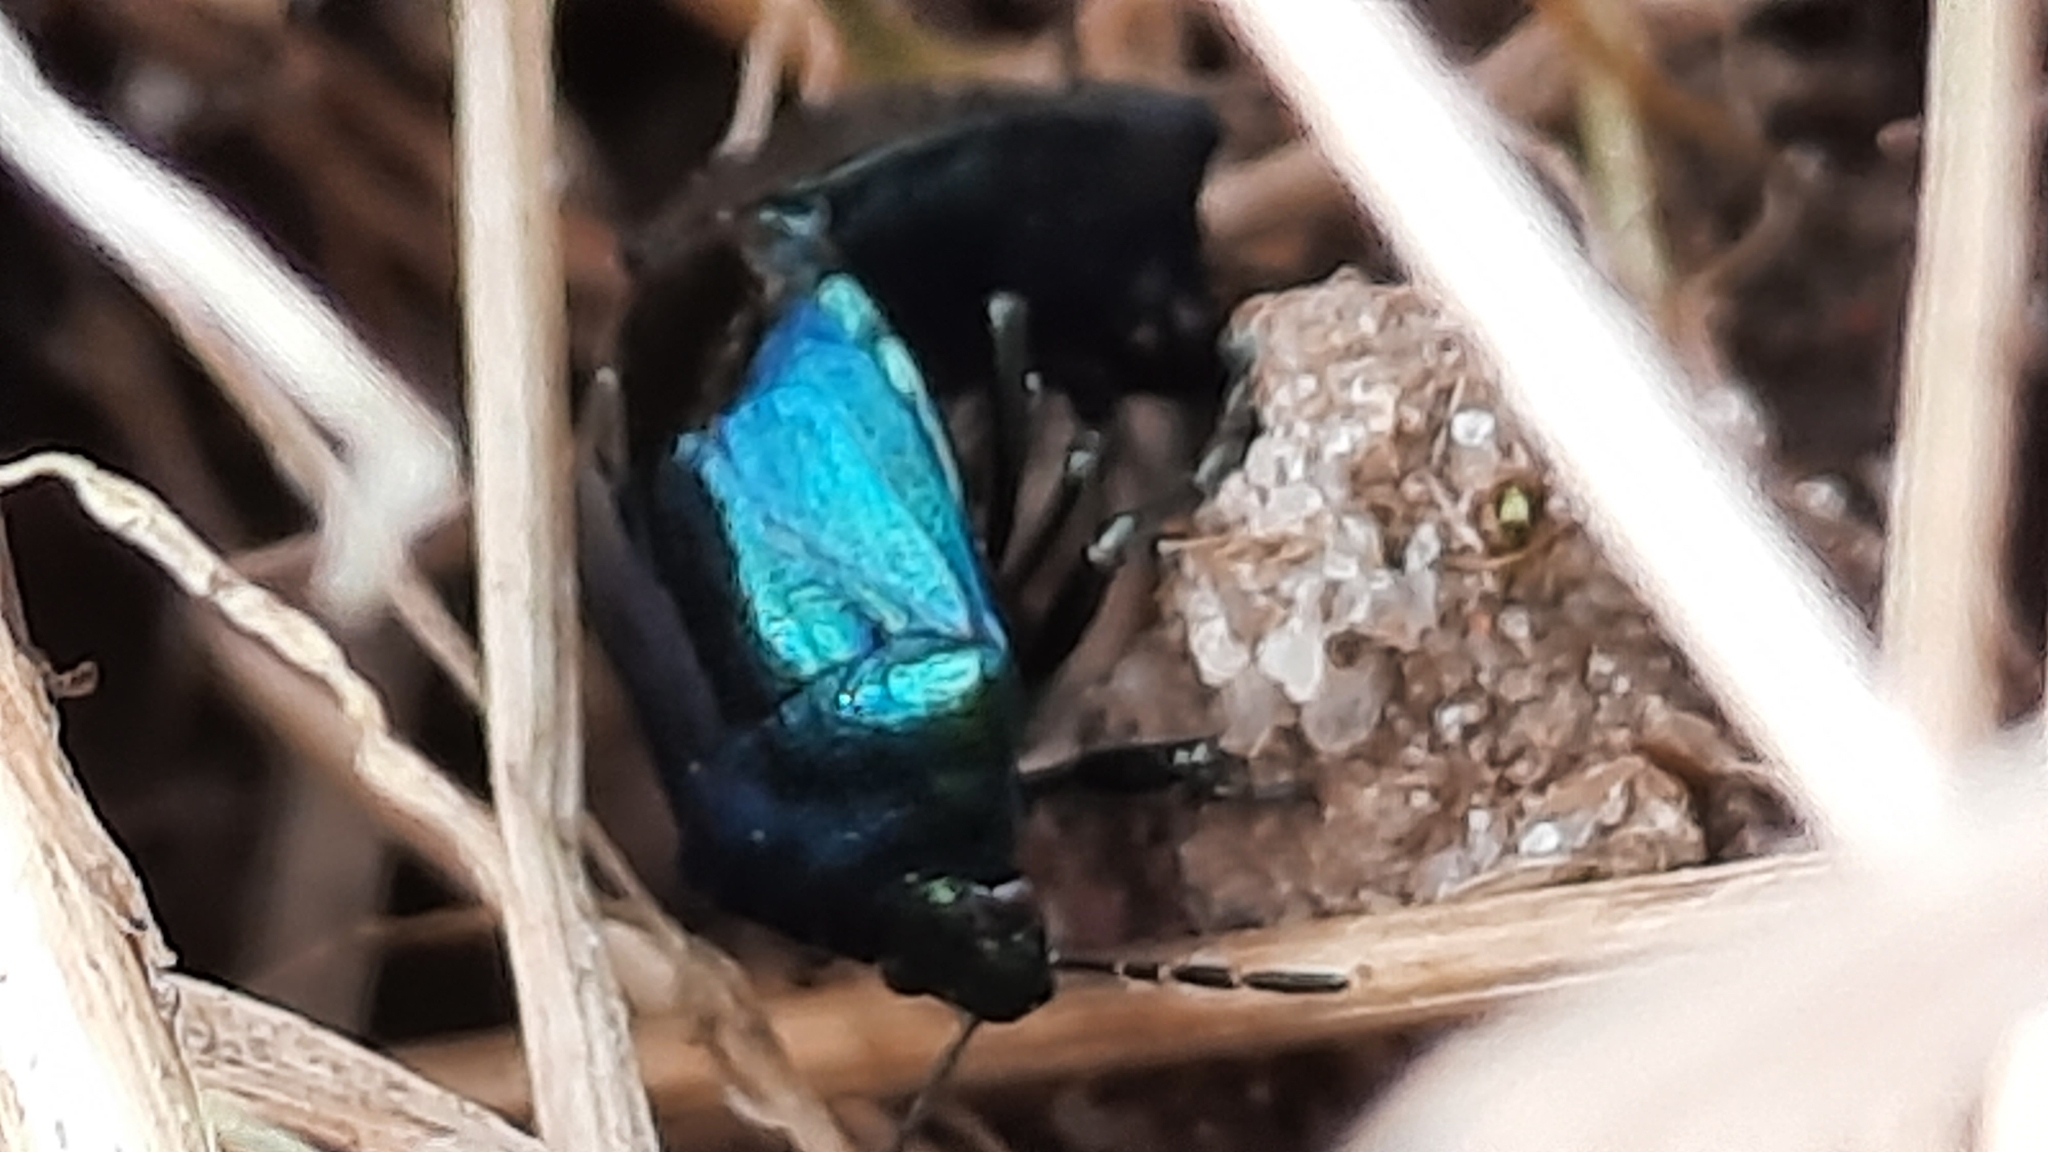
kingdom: Animalia
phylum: Arthropoda
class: Insecta
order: Hemiptera
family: Pentatomidae
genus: Zicrona
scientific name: Zicrona caerulea
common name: Blue shieldbug
